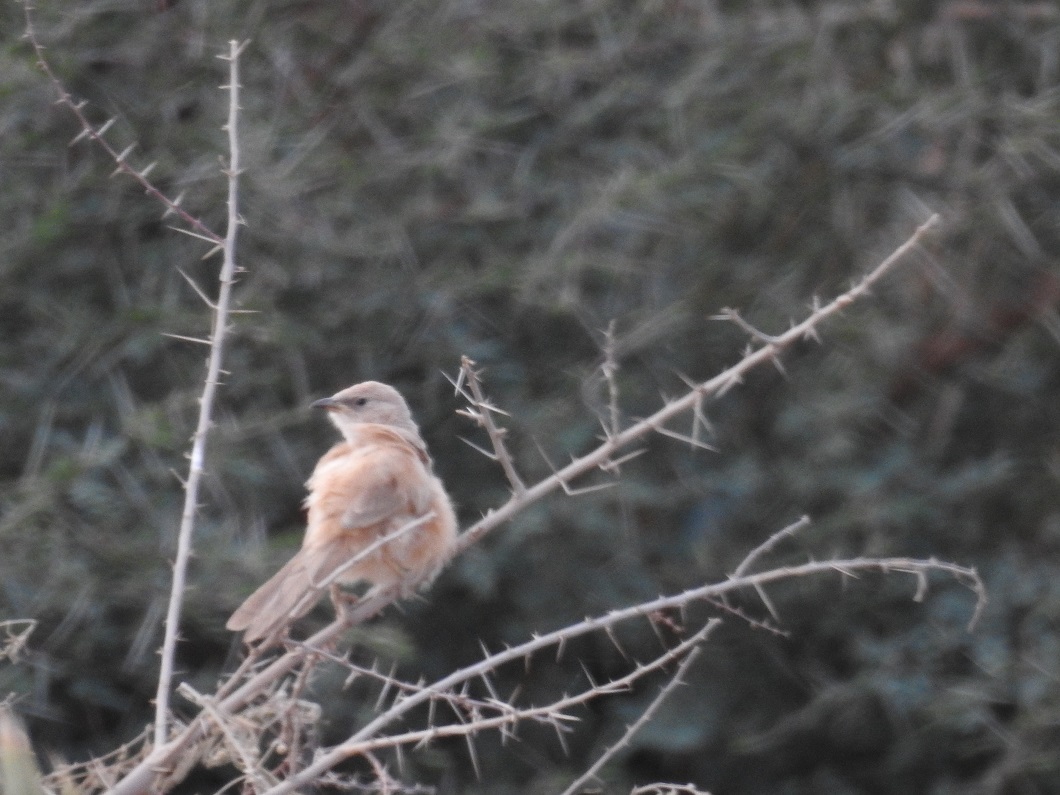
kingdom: Animalia
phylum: Chordata
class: Aves
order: Passeriformes
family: Leiothrichidae
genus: Turdoides
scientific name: Turdoides fulva
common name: Fulvous babbler
